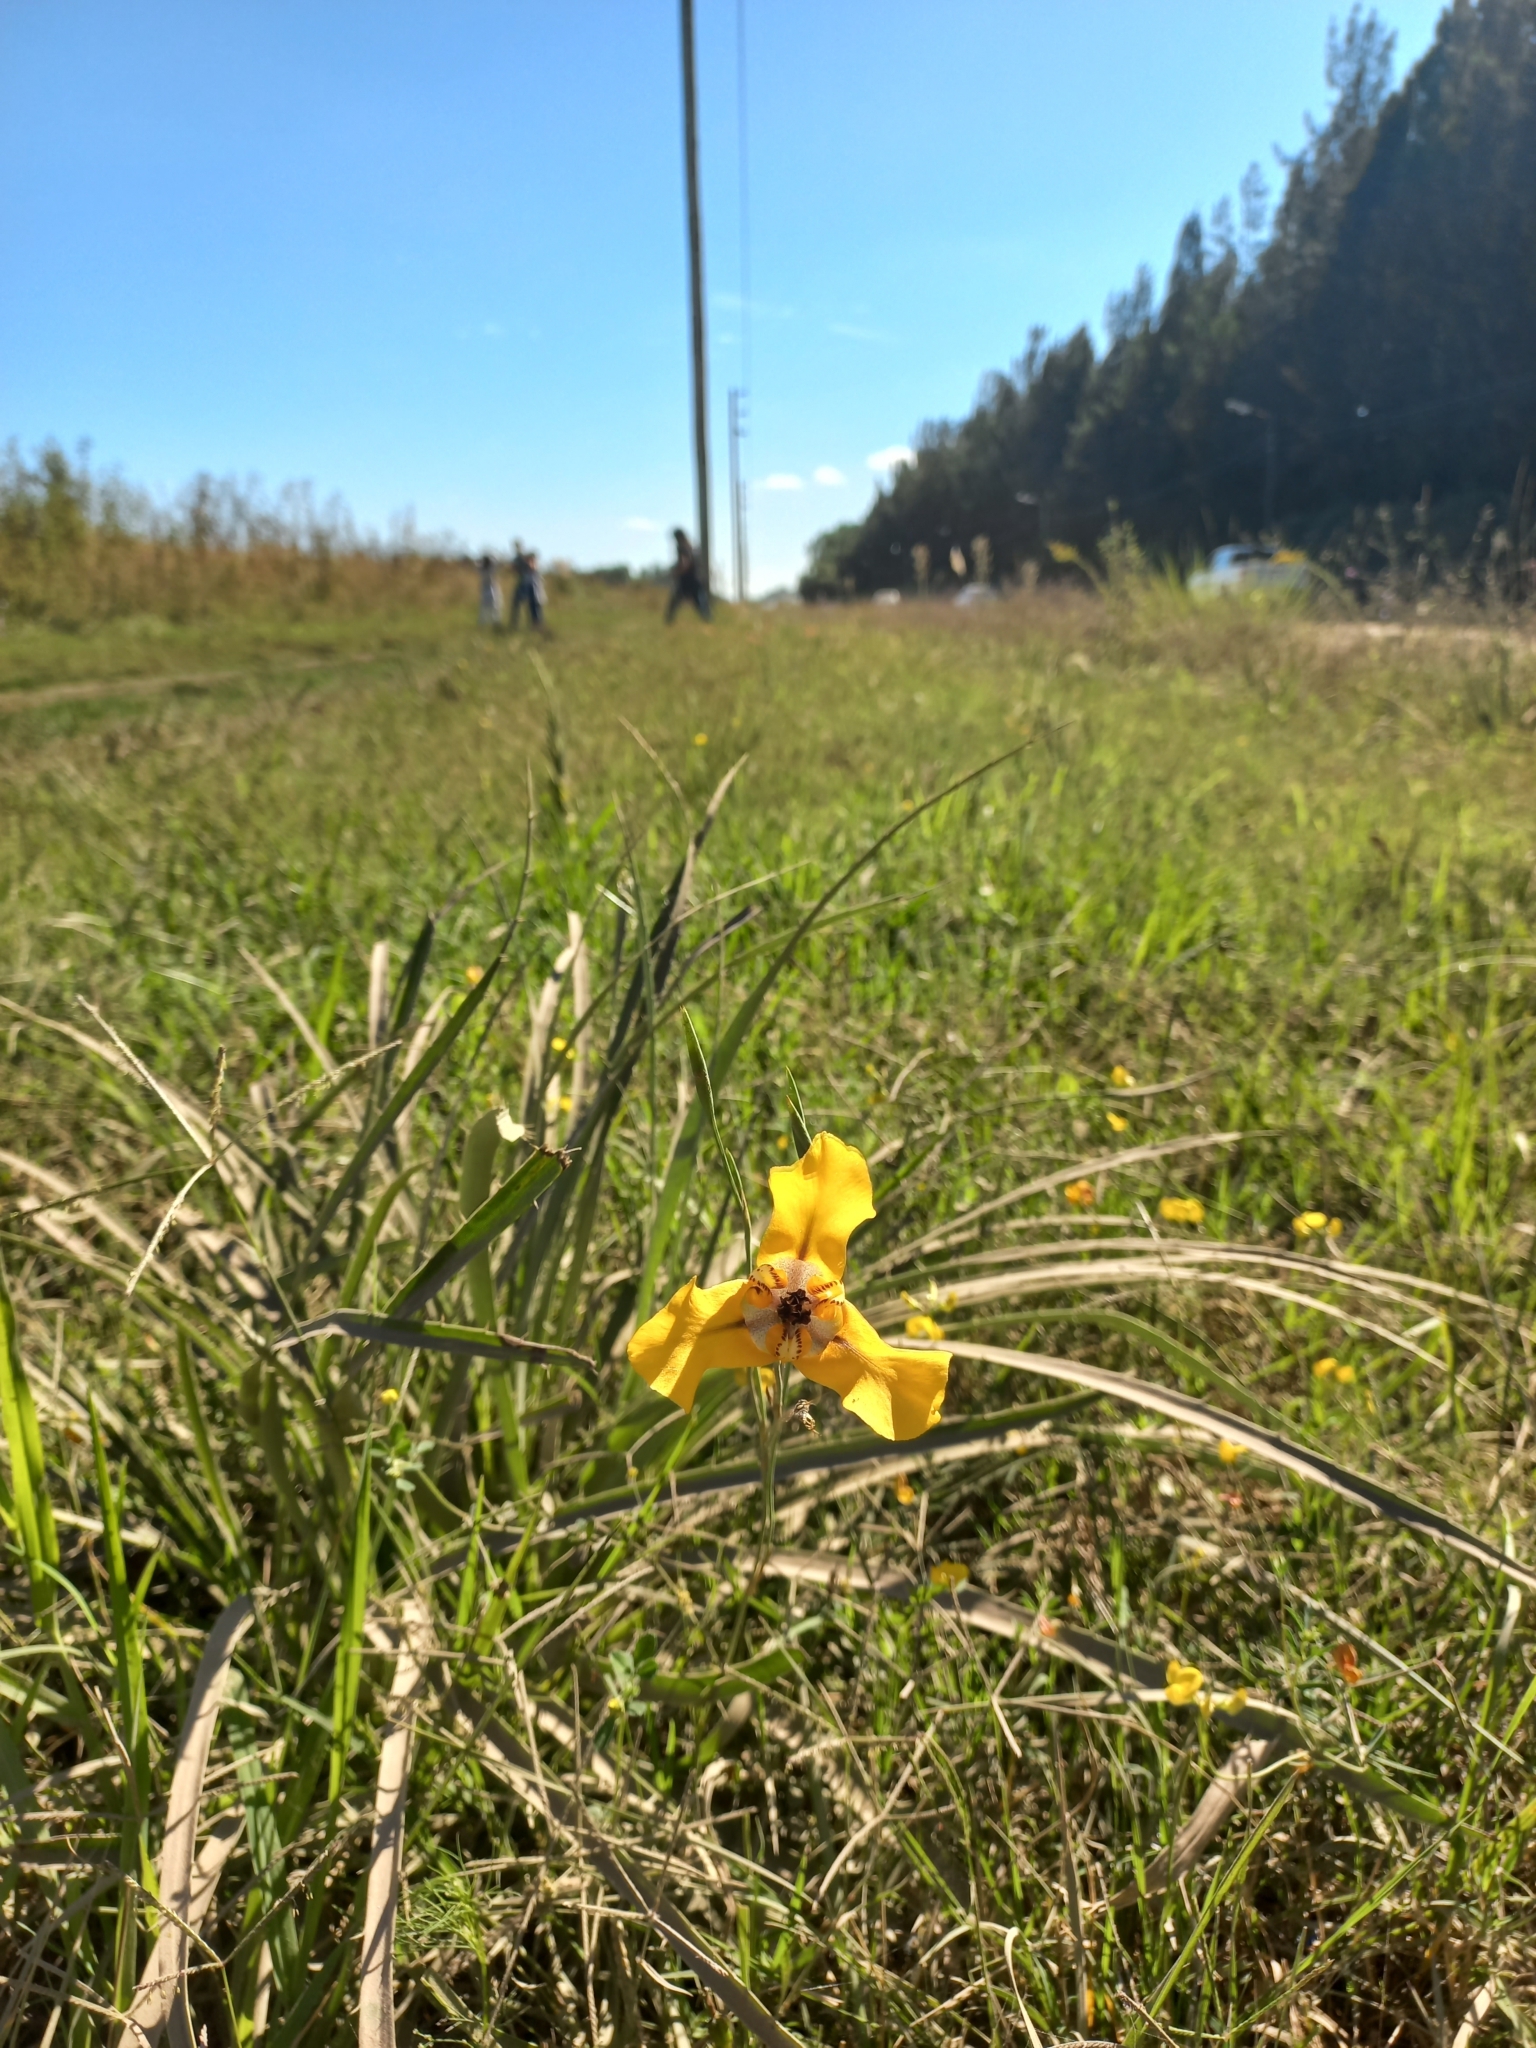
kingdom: Plantae
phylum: Tracheophyta
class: Liliopsida
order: Asparagales
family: Iridaceae
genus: Cypella
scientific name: Cypella herbertii
